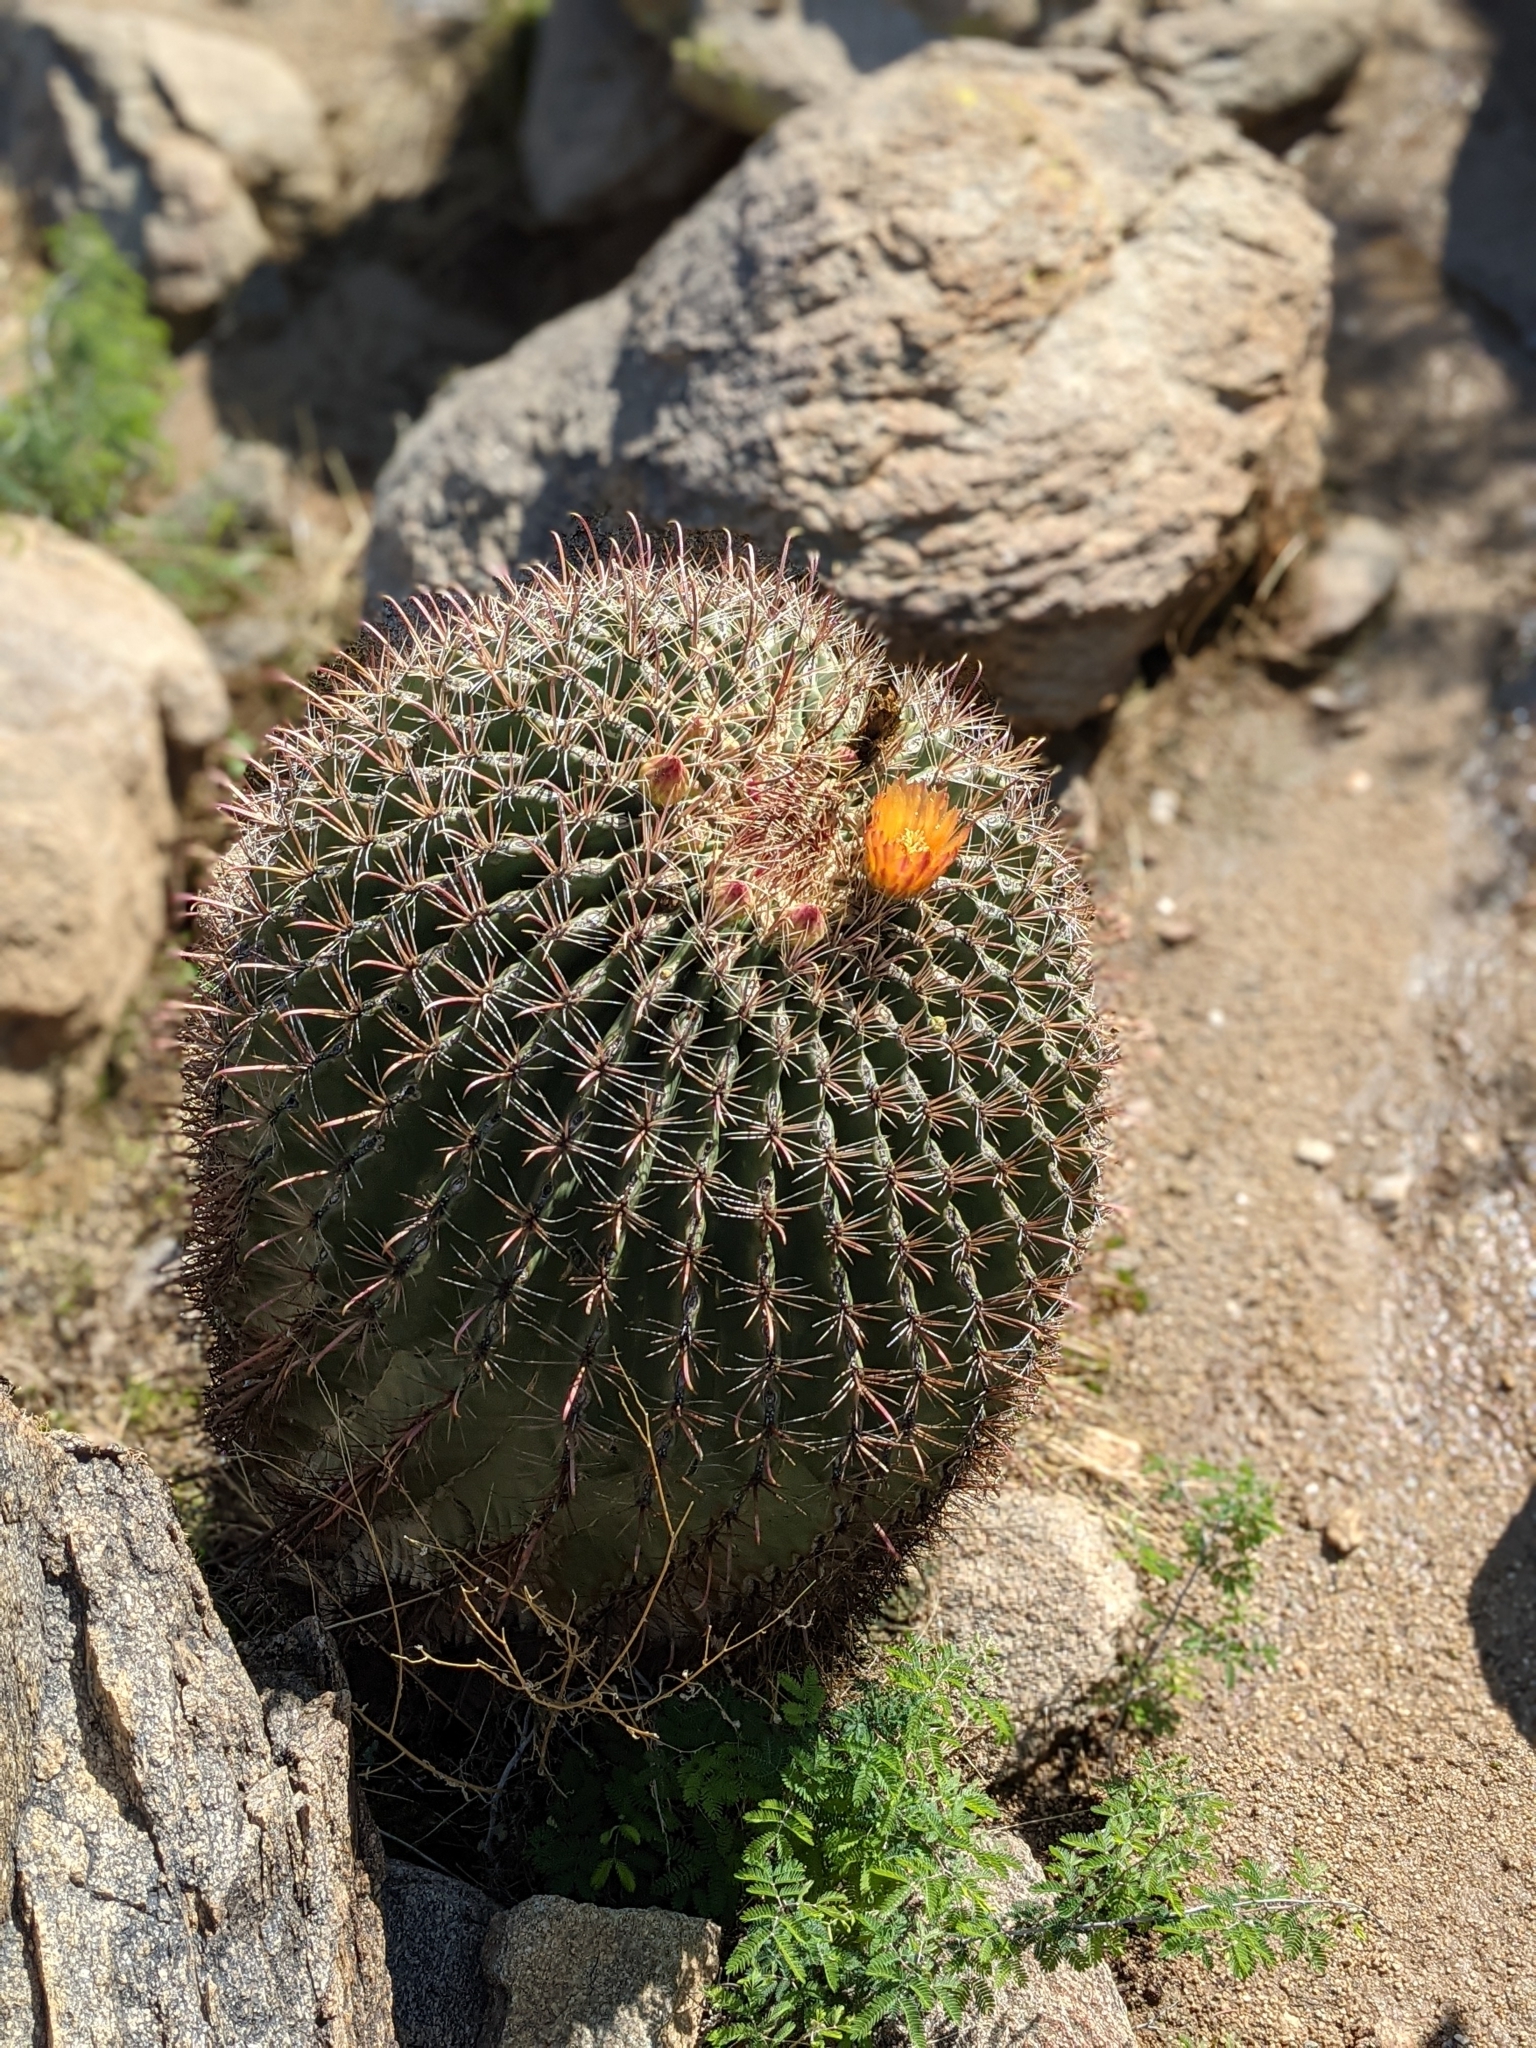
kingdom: Plantae
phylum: Tracheophyta
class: Magnoliopsida
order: Caryophyllales
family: Cactaceae
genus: Ferocactus
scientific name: Ferocactus wislizeni
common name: Candy barrel cactus
